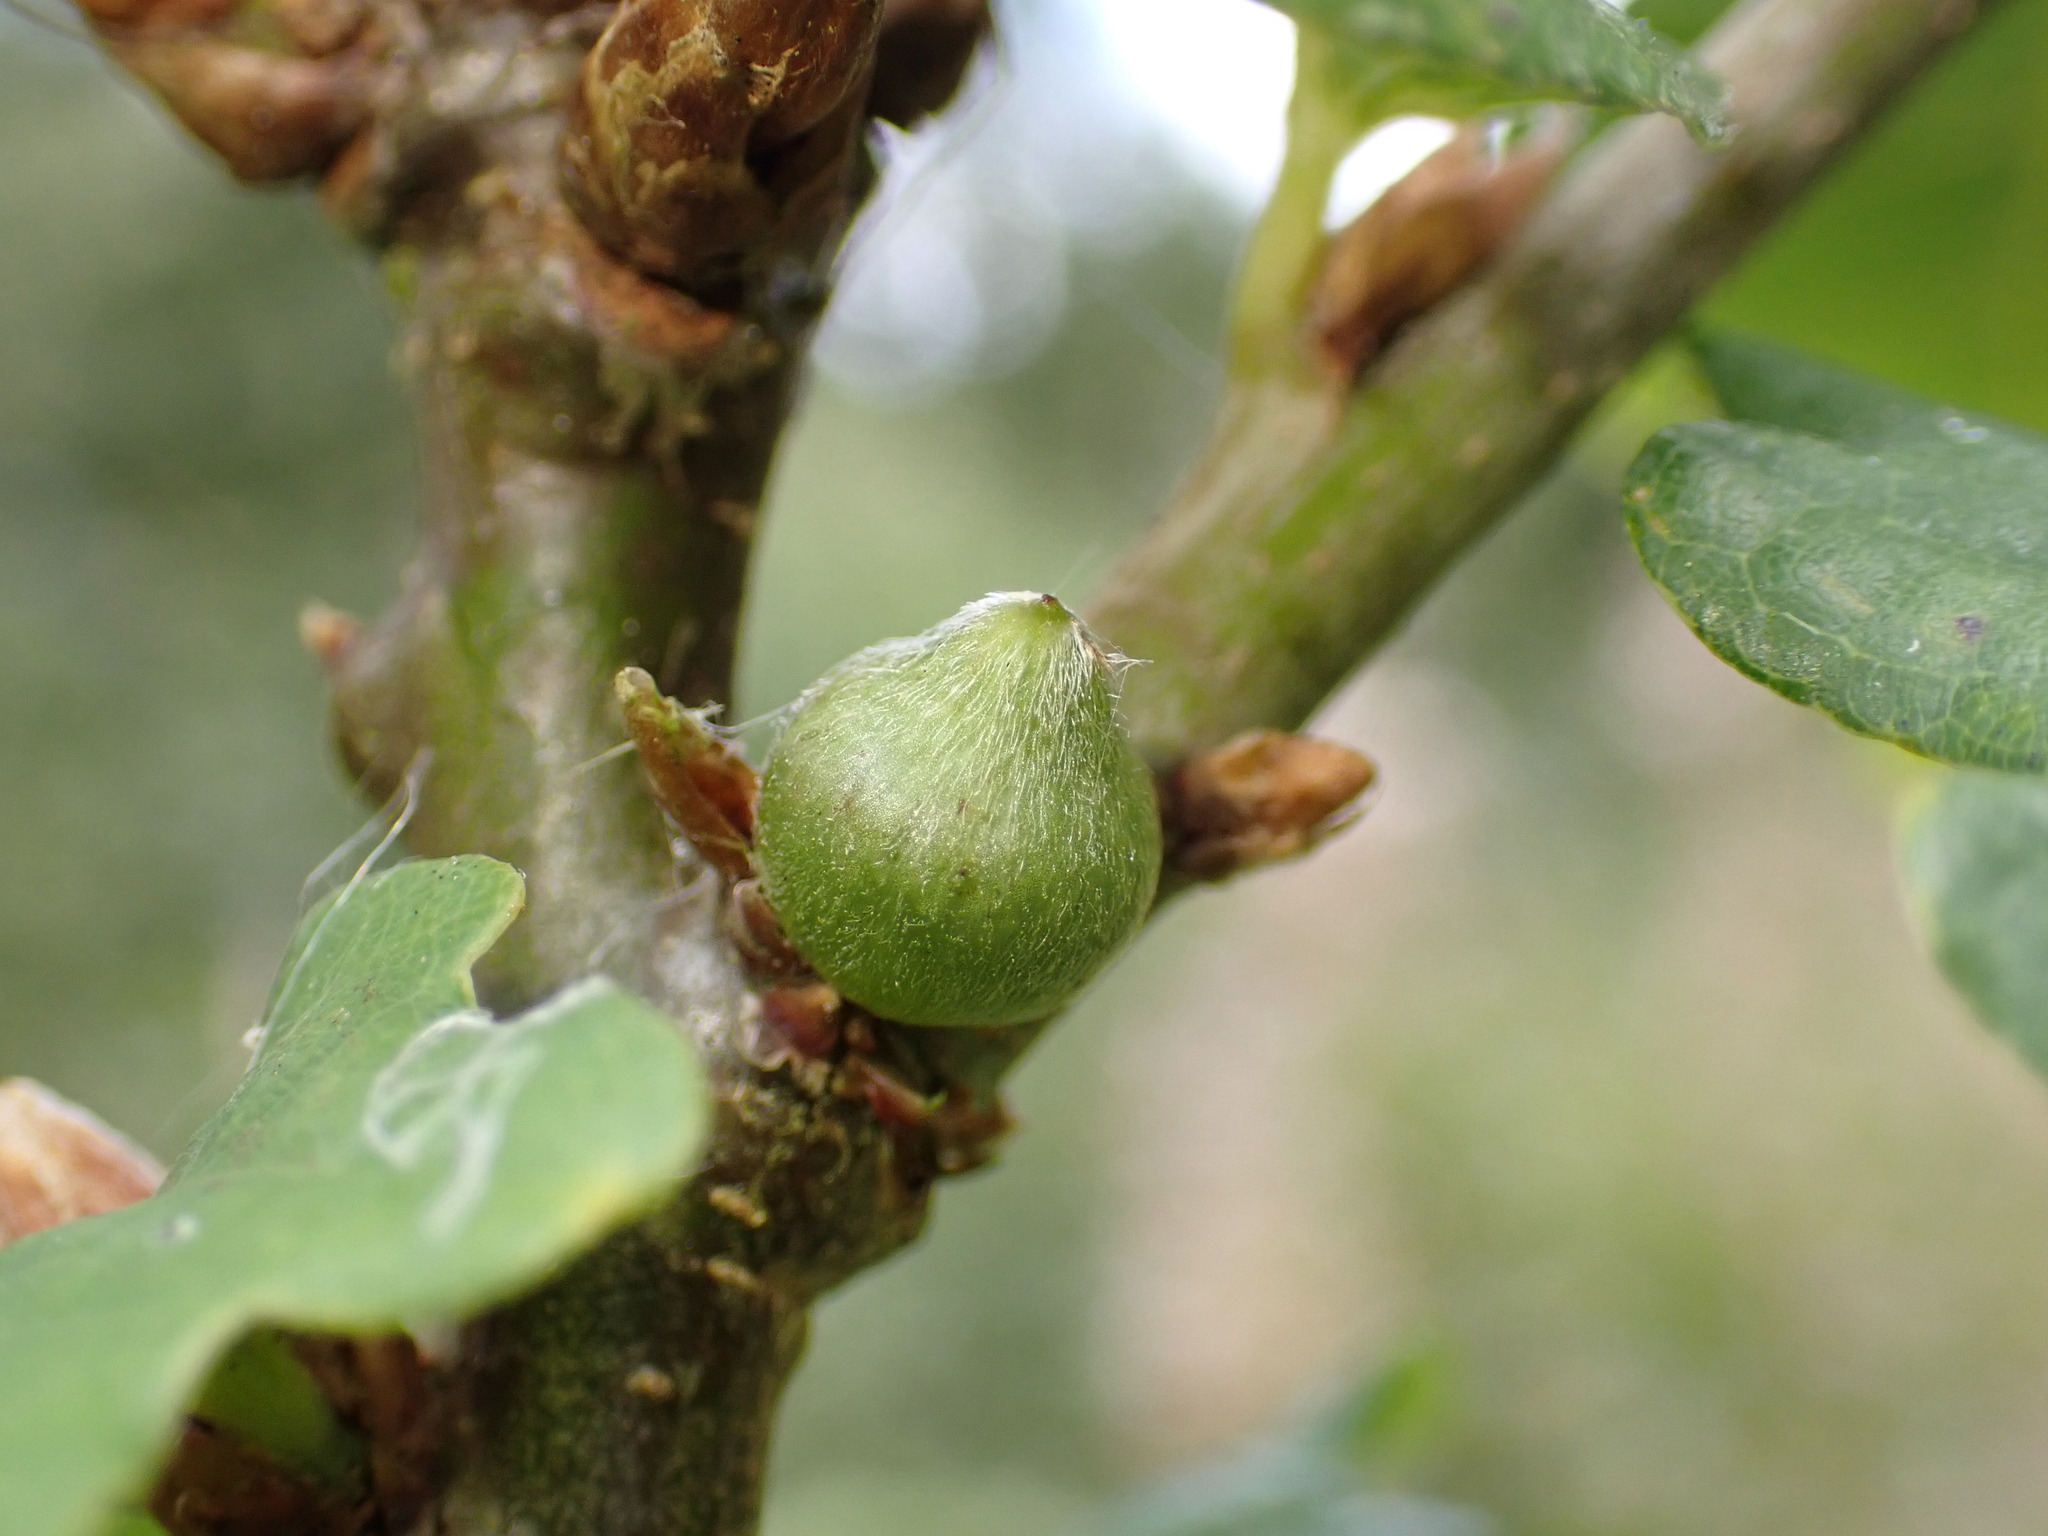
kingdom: Animalia
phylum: Arthropoda
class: Insecta
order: Hymenoptera
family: Cynipidae
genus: Andricus
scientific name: Andricus glandulae
